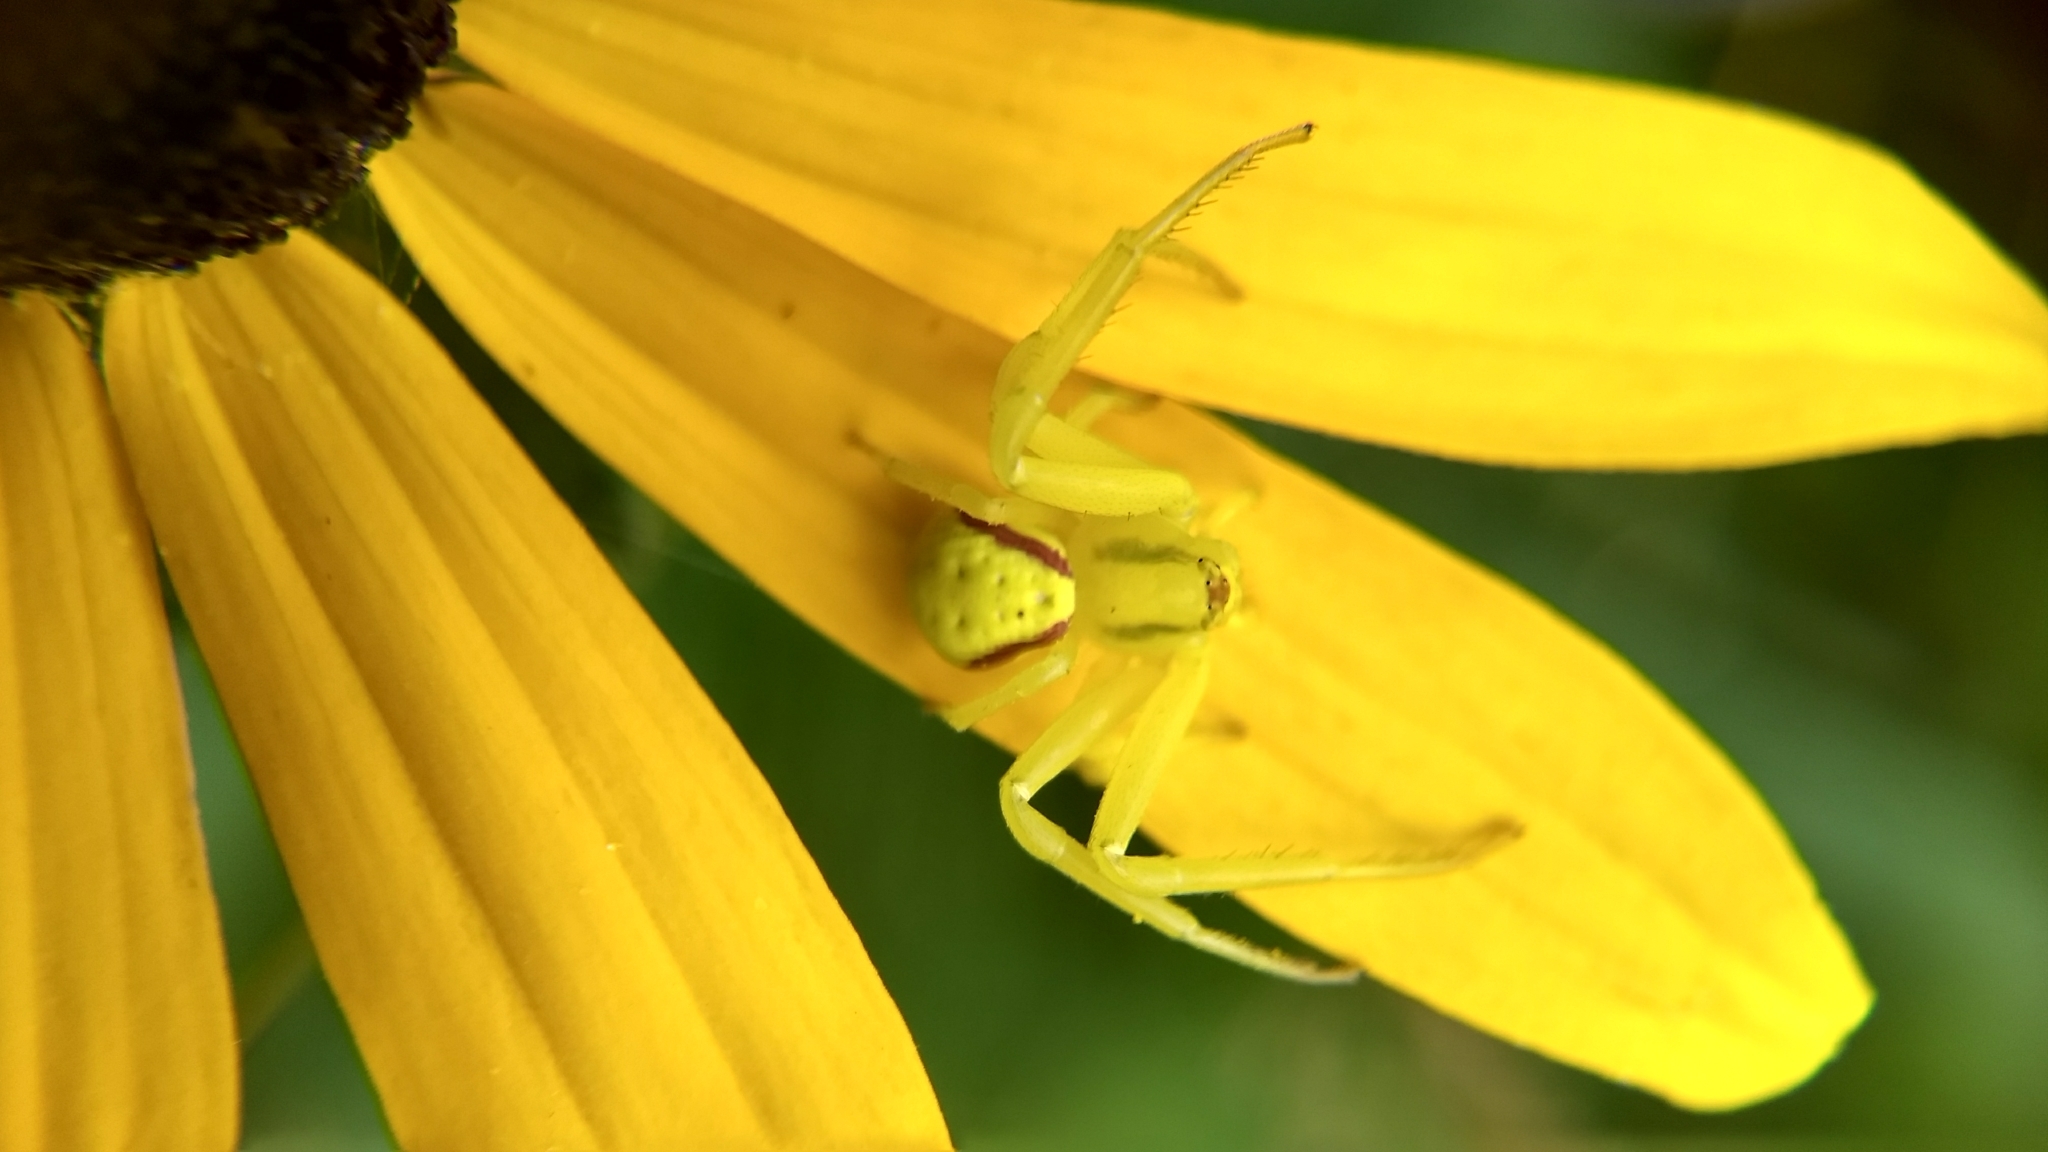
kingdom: Animalia
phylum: Arthropoda
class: Arachnida
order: Araneae
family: Thomisidae
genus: Misumena
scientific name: Misumena vatia
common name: Goldenrod crab spider
